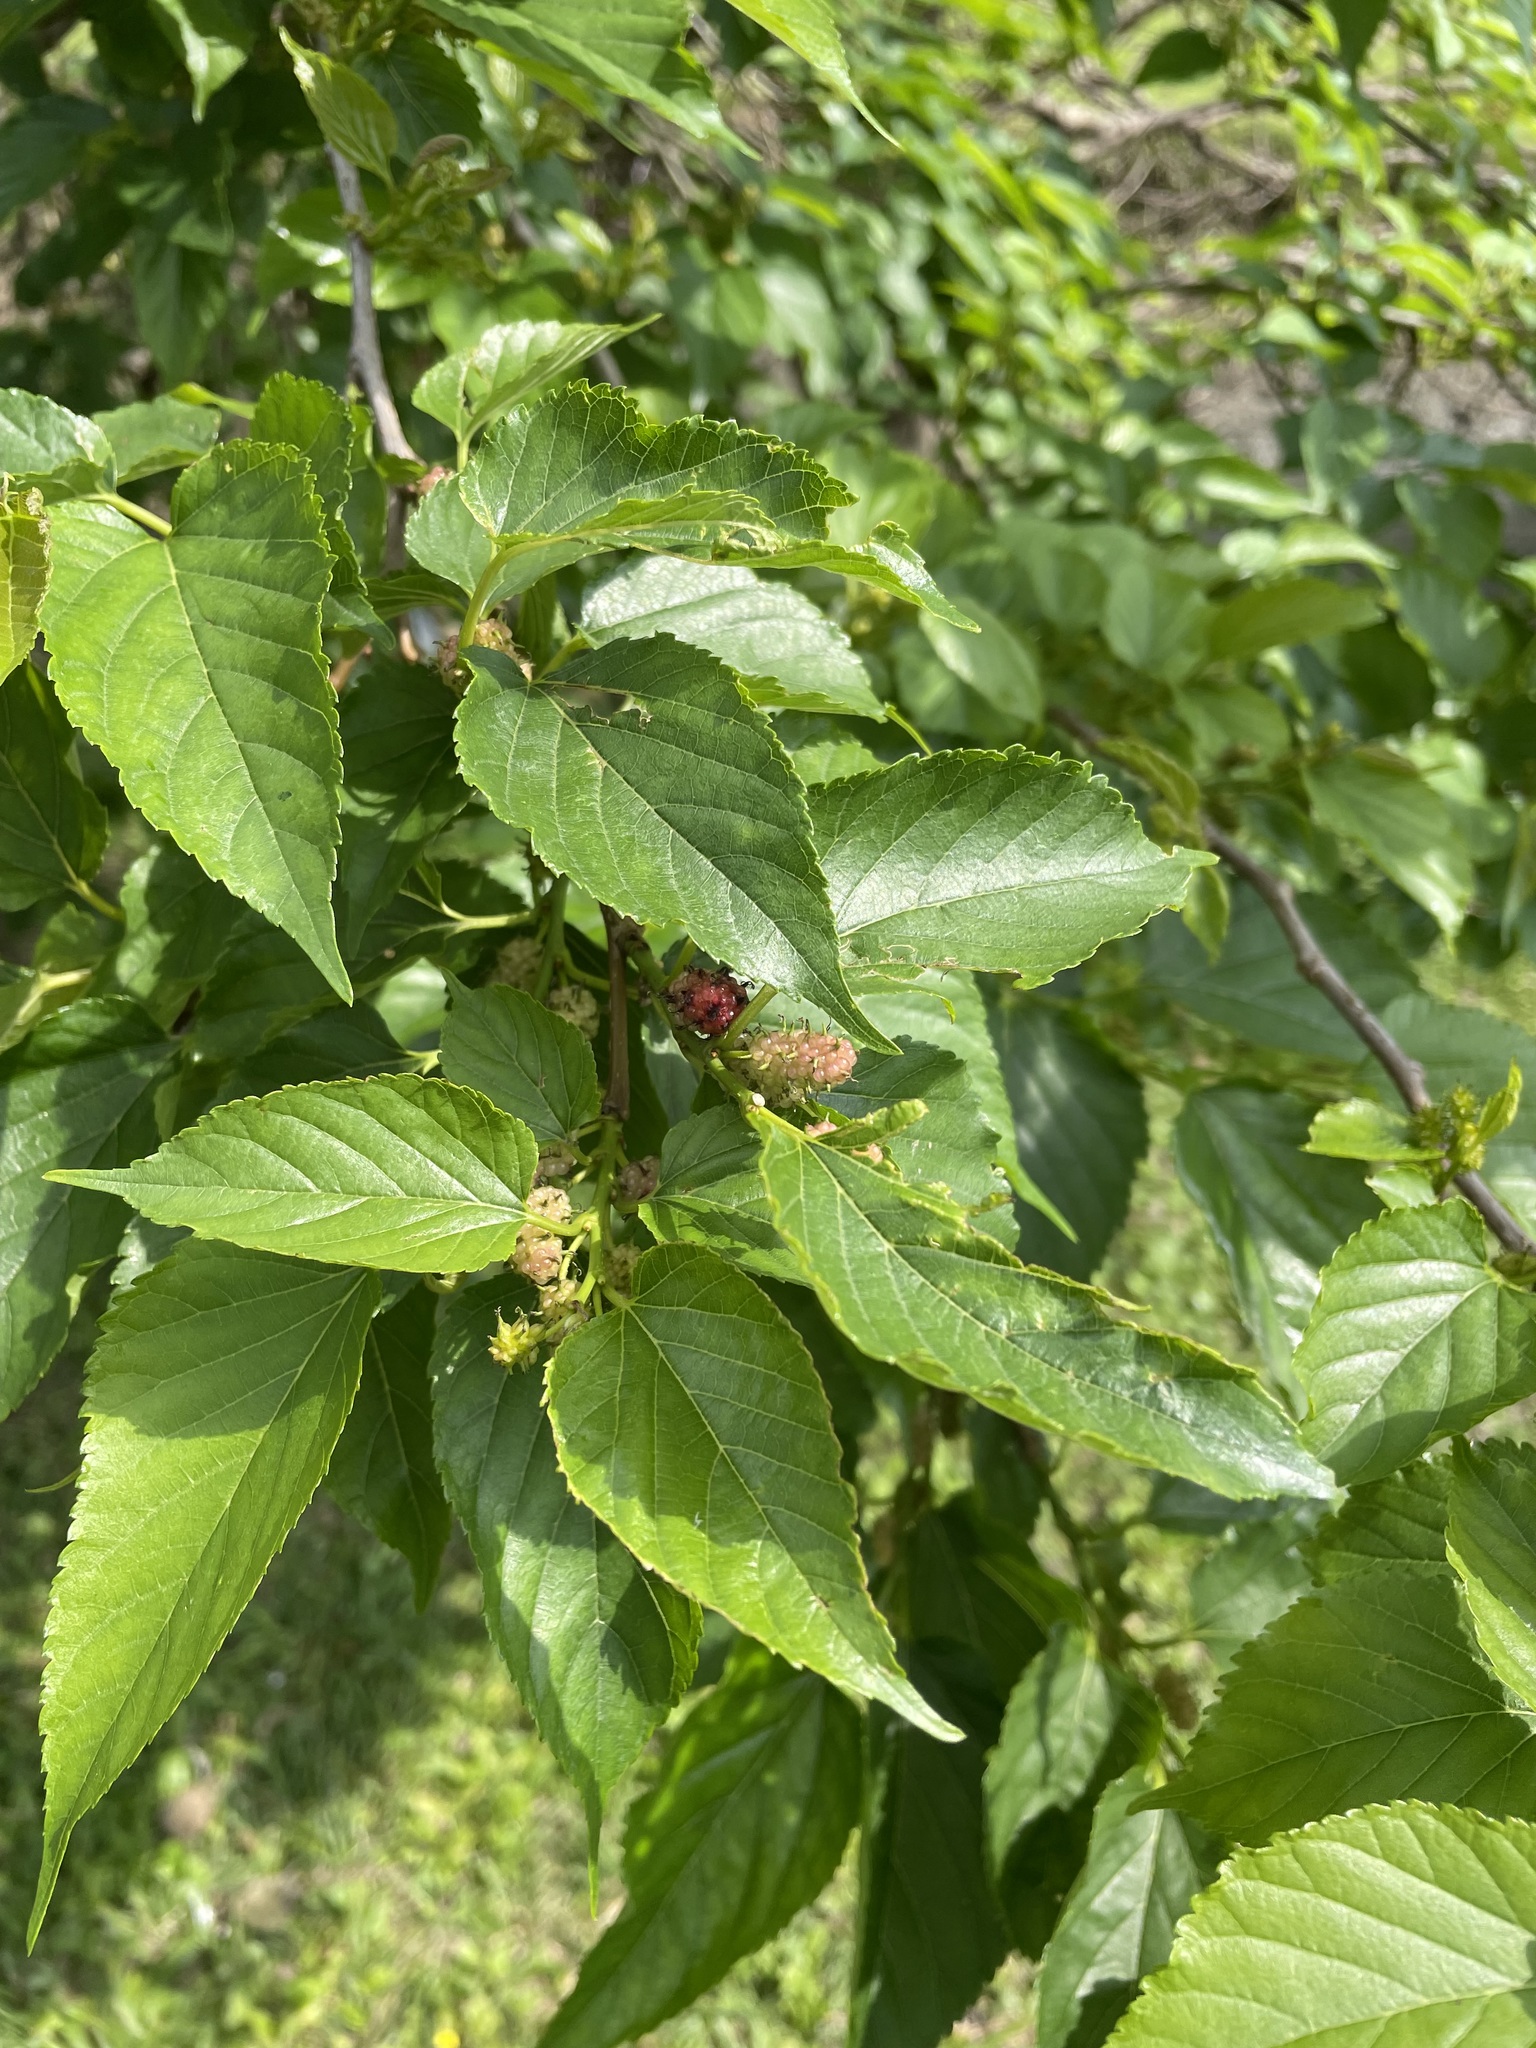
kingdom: Plantae
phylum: Tracheophyta
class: Magnoliopsida
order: Rosales
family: Moraceae
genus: Morus
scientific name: Morus indica
